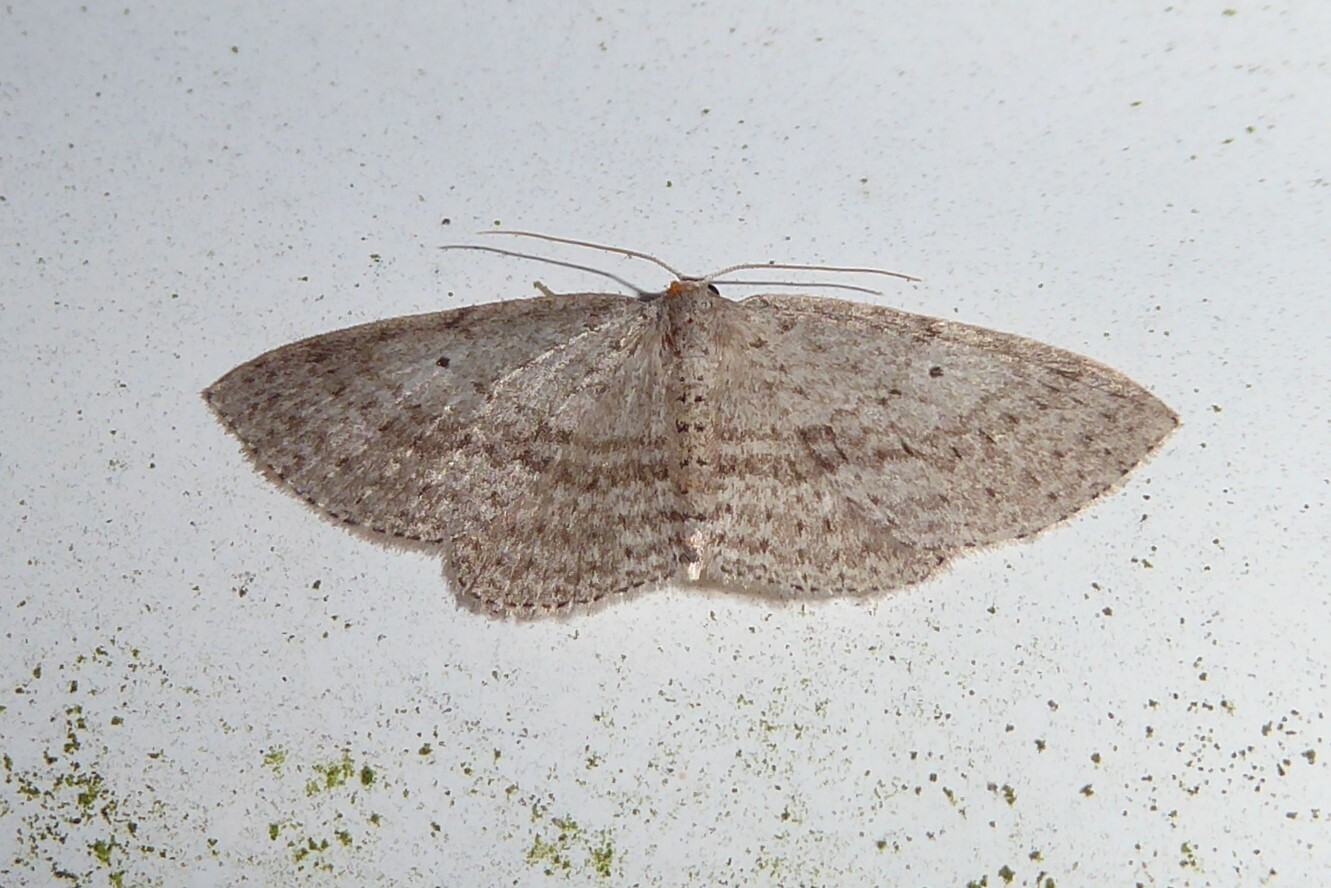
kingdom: Animalia
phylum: Arthropoda
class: Insecta
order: Lepidoptera
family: Geometridae
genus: Poecilasthena
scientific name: Poecilasthena schistaria
